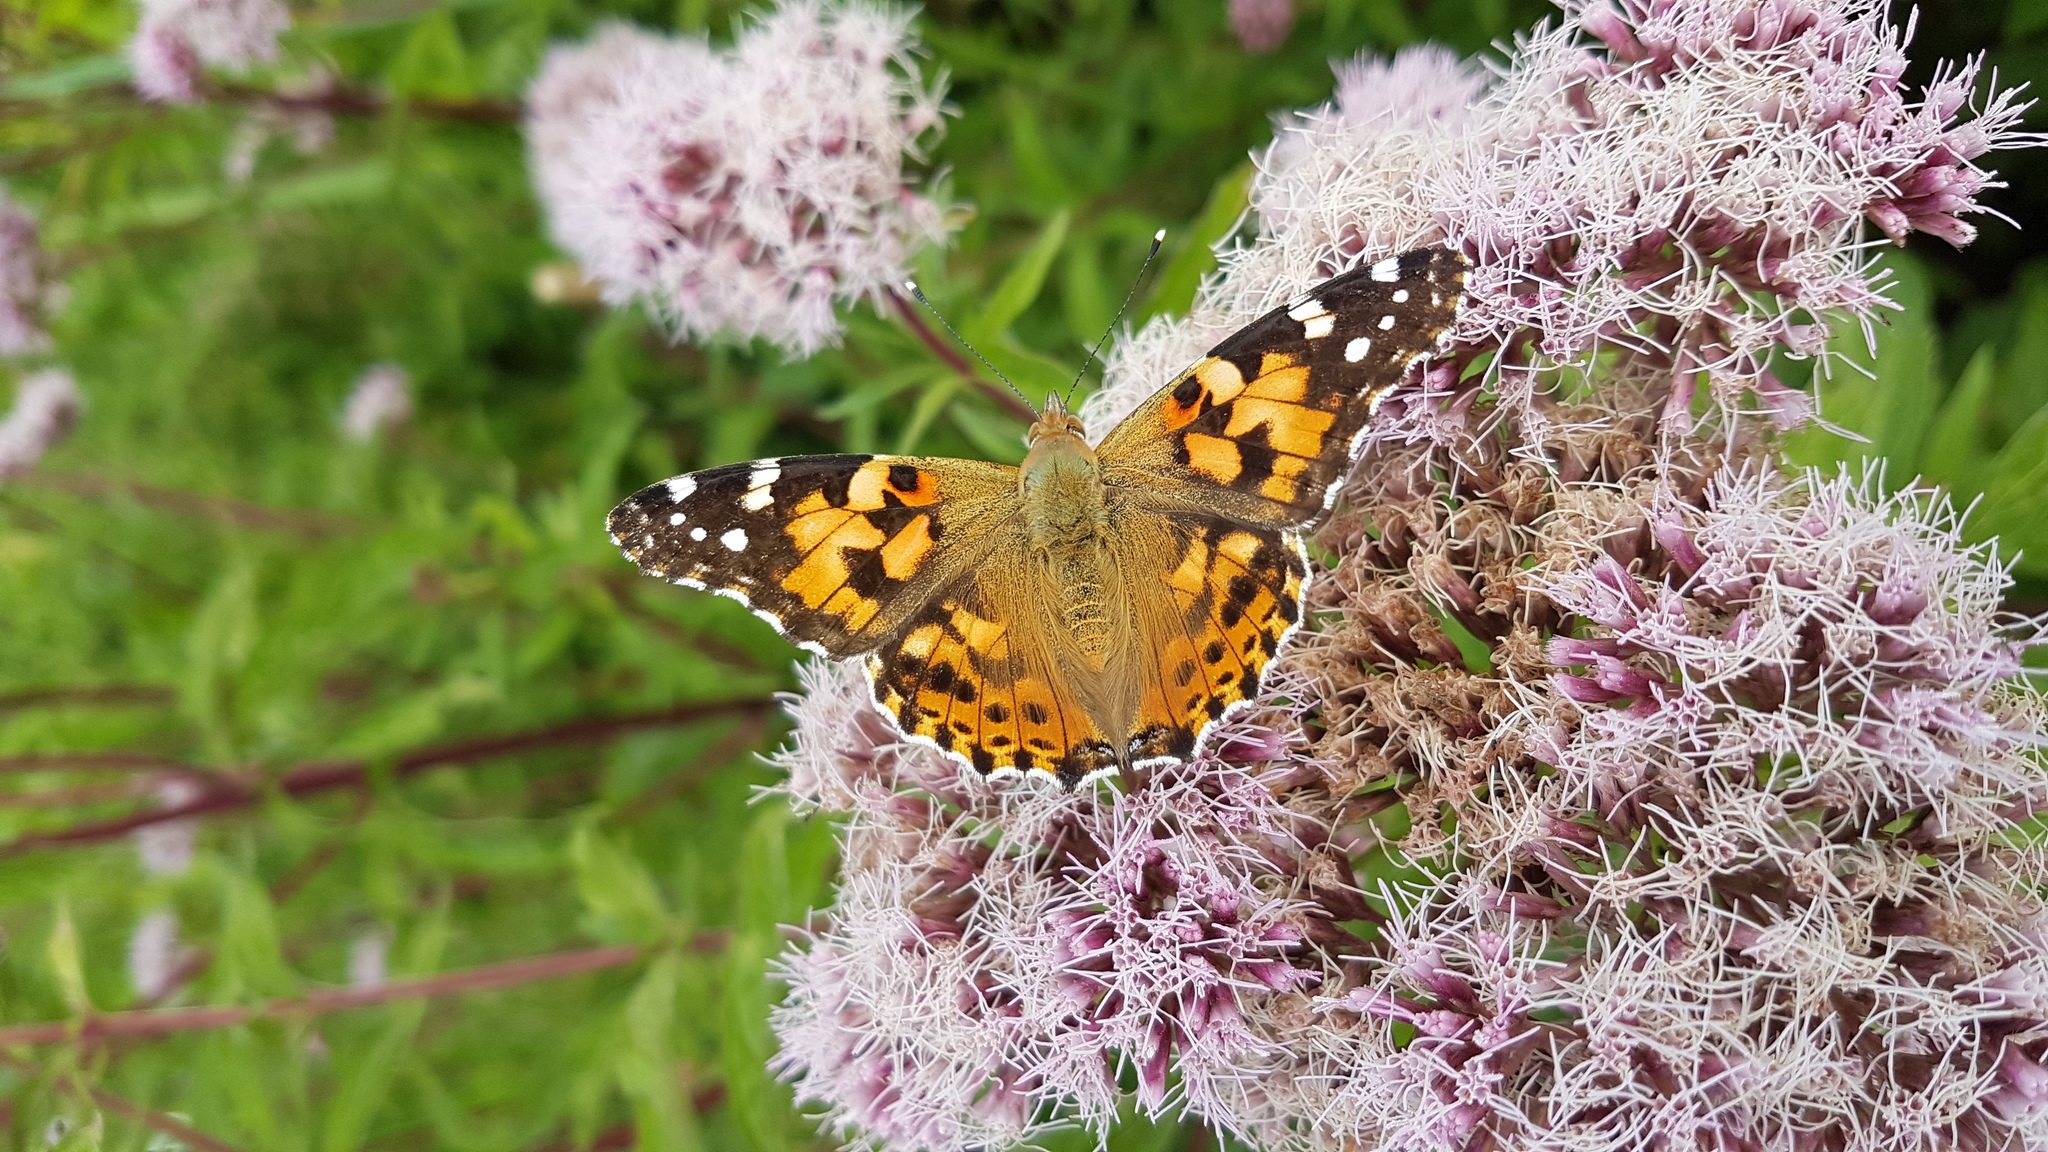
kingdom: Animalia
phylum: Arthropoda
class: Insecta
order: Lepidoptera
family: Nymphalidae
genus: Vanessa
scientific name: Vanessa cardui
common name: Painted lady
